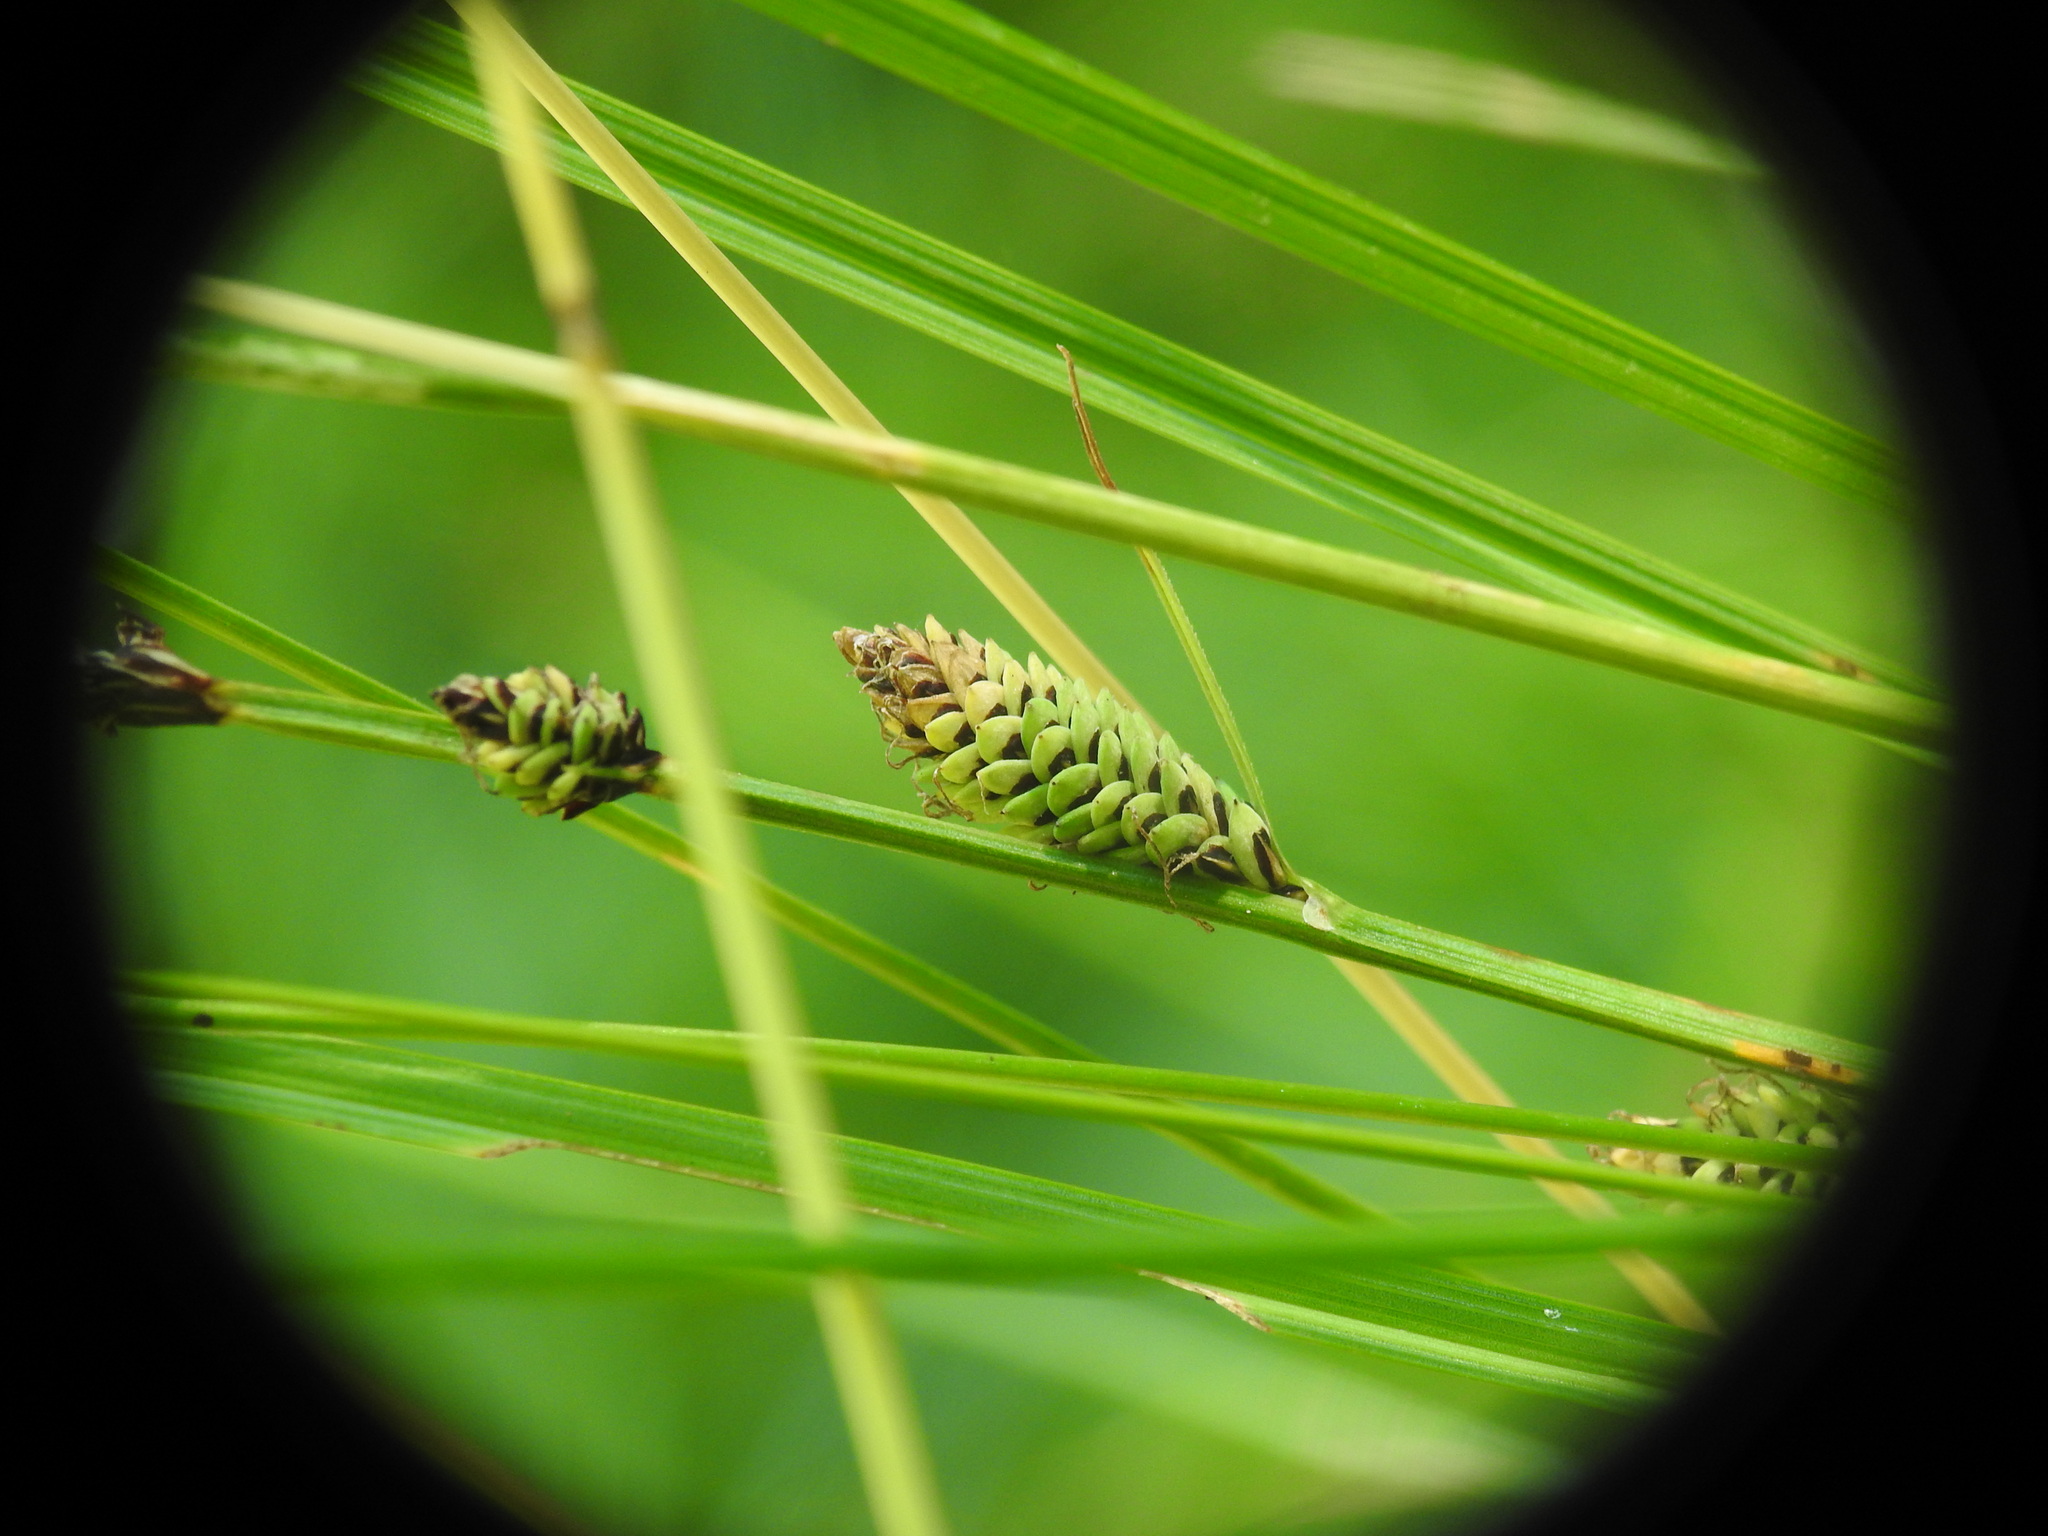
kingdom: Plantae
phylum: Tracheophyta
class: Liliopsida
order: Poales
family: Cyperaceae
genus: Carex
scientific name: Carex nigra
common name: Common sedge
